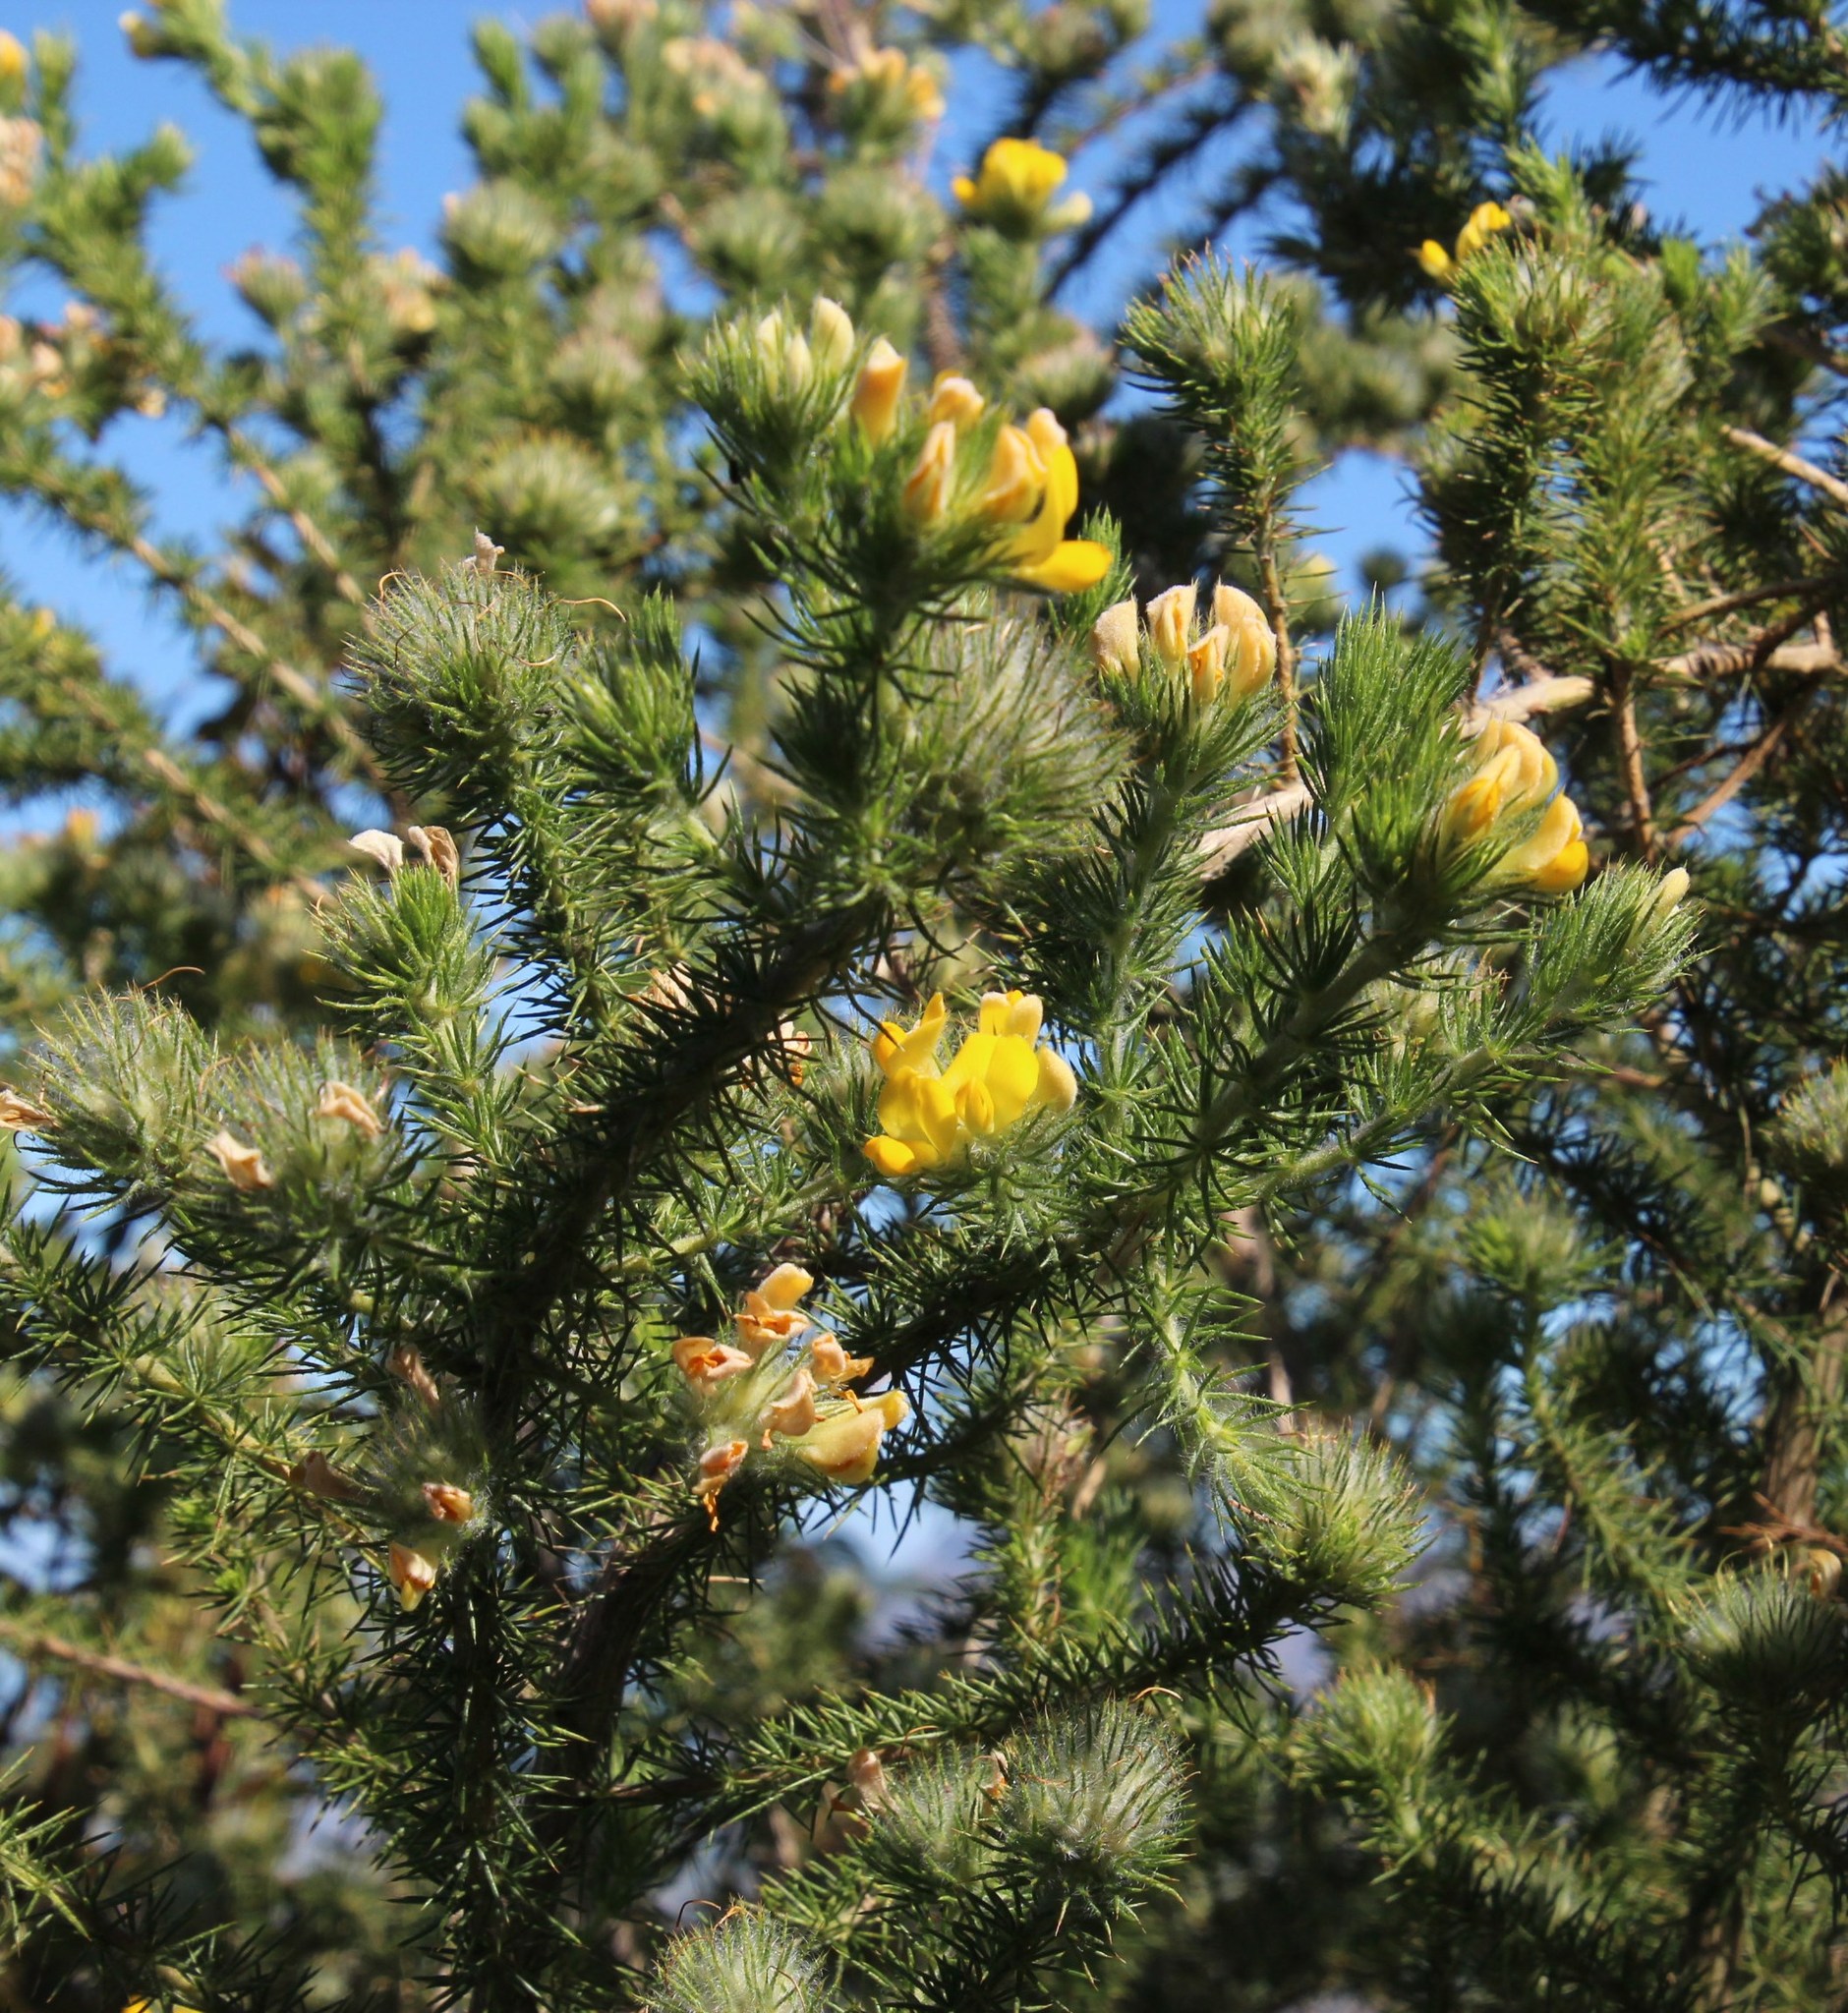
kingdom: Plantae
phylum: Tracheophyta
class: Magnoliopsida
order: Fabales
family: Fabaceae
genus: Aspalathus
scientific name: Aspalathus chenopoda
